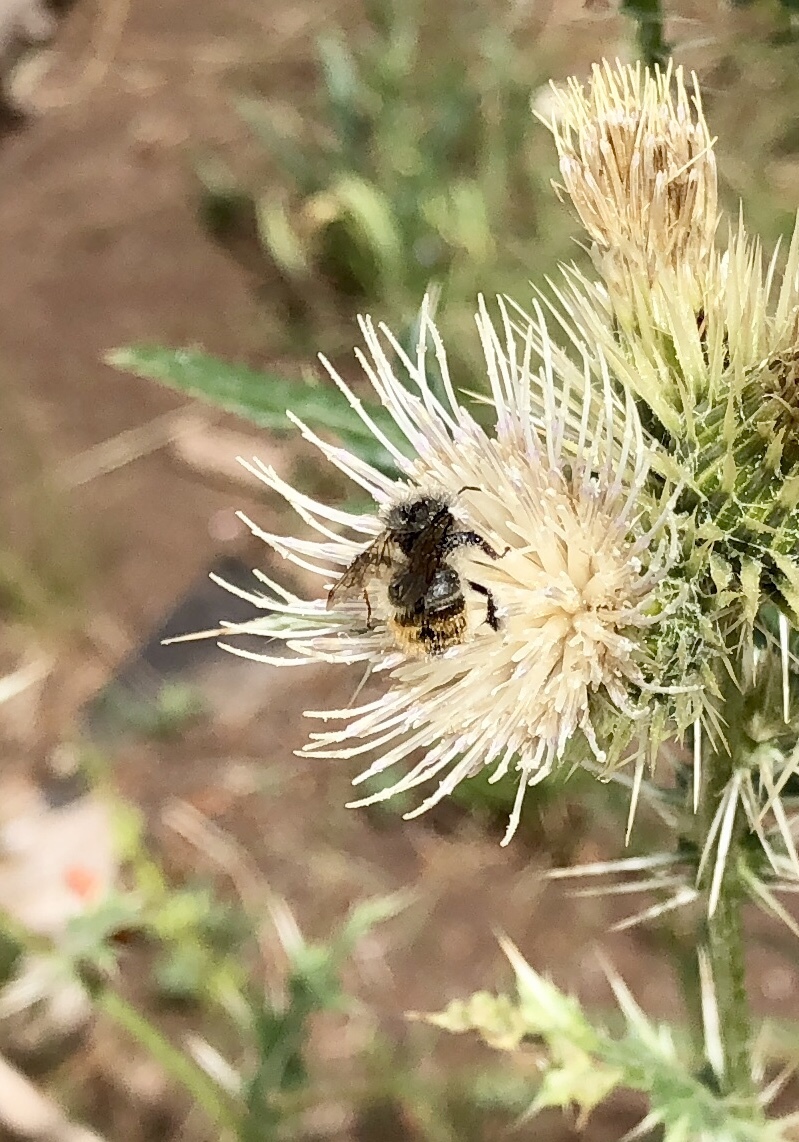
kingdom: Animalia
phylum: Arthropoda
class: Insecta
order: Hymenoptera
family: Apidae
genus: Pyrobombus
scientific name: Pyrobombus
